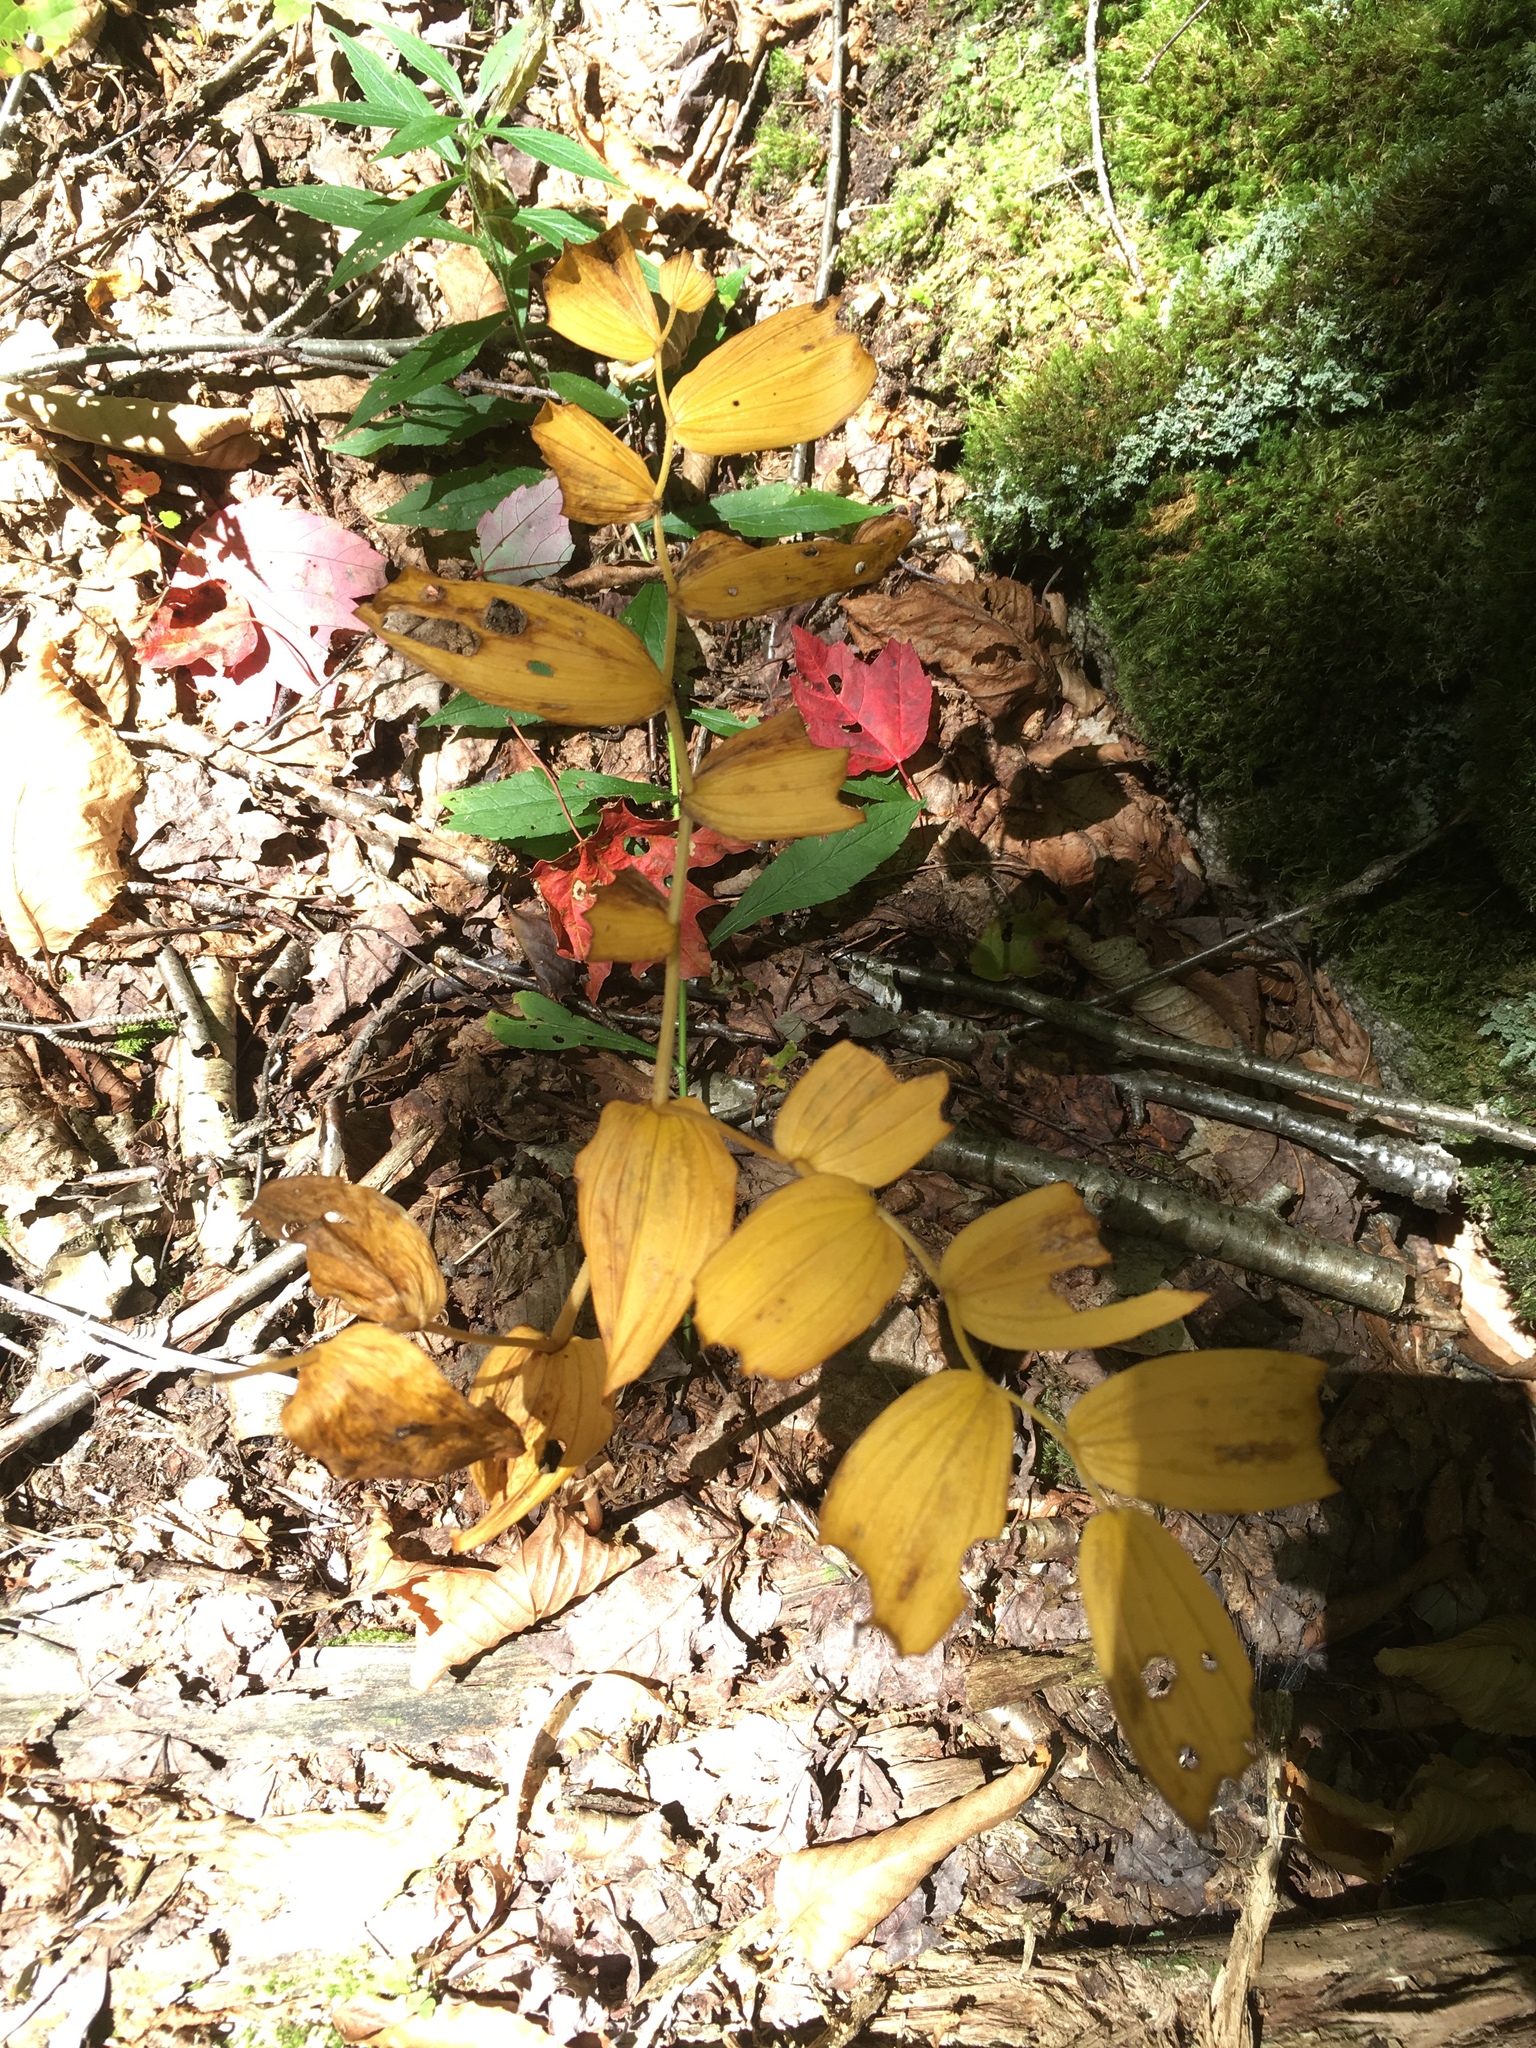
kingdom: Plantae
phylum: Tracheophyta
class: Liliopsida
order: Liliales
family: Liliaceae
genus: Streptopus
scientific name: Streptopus lanceolatus
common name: Rose mandarin
